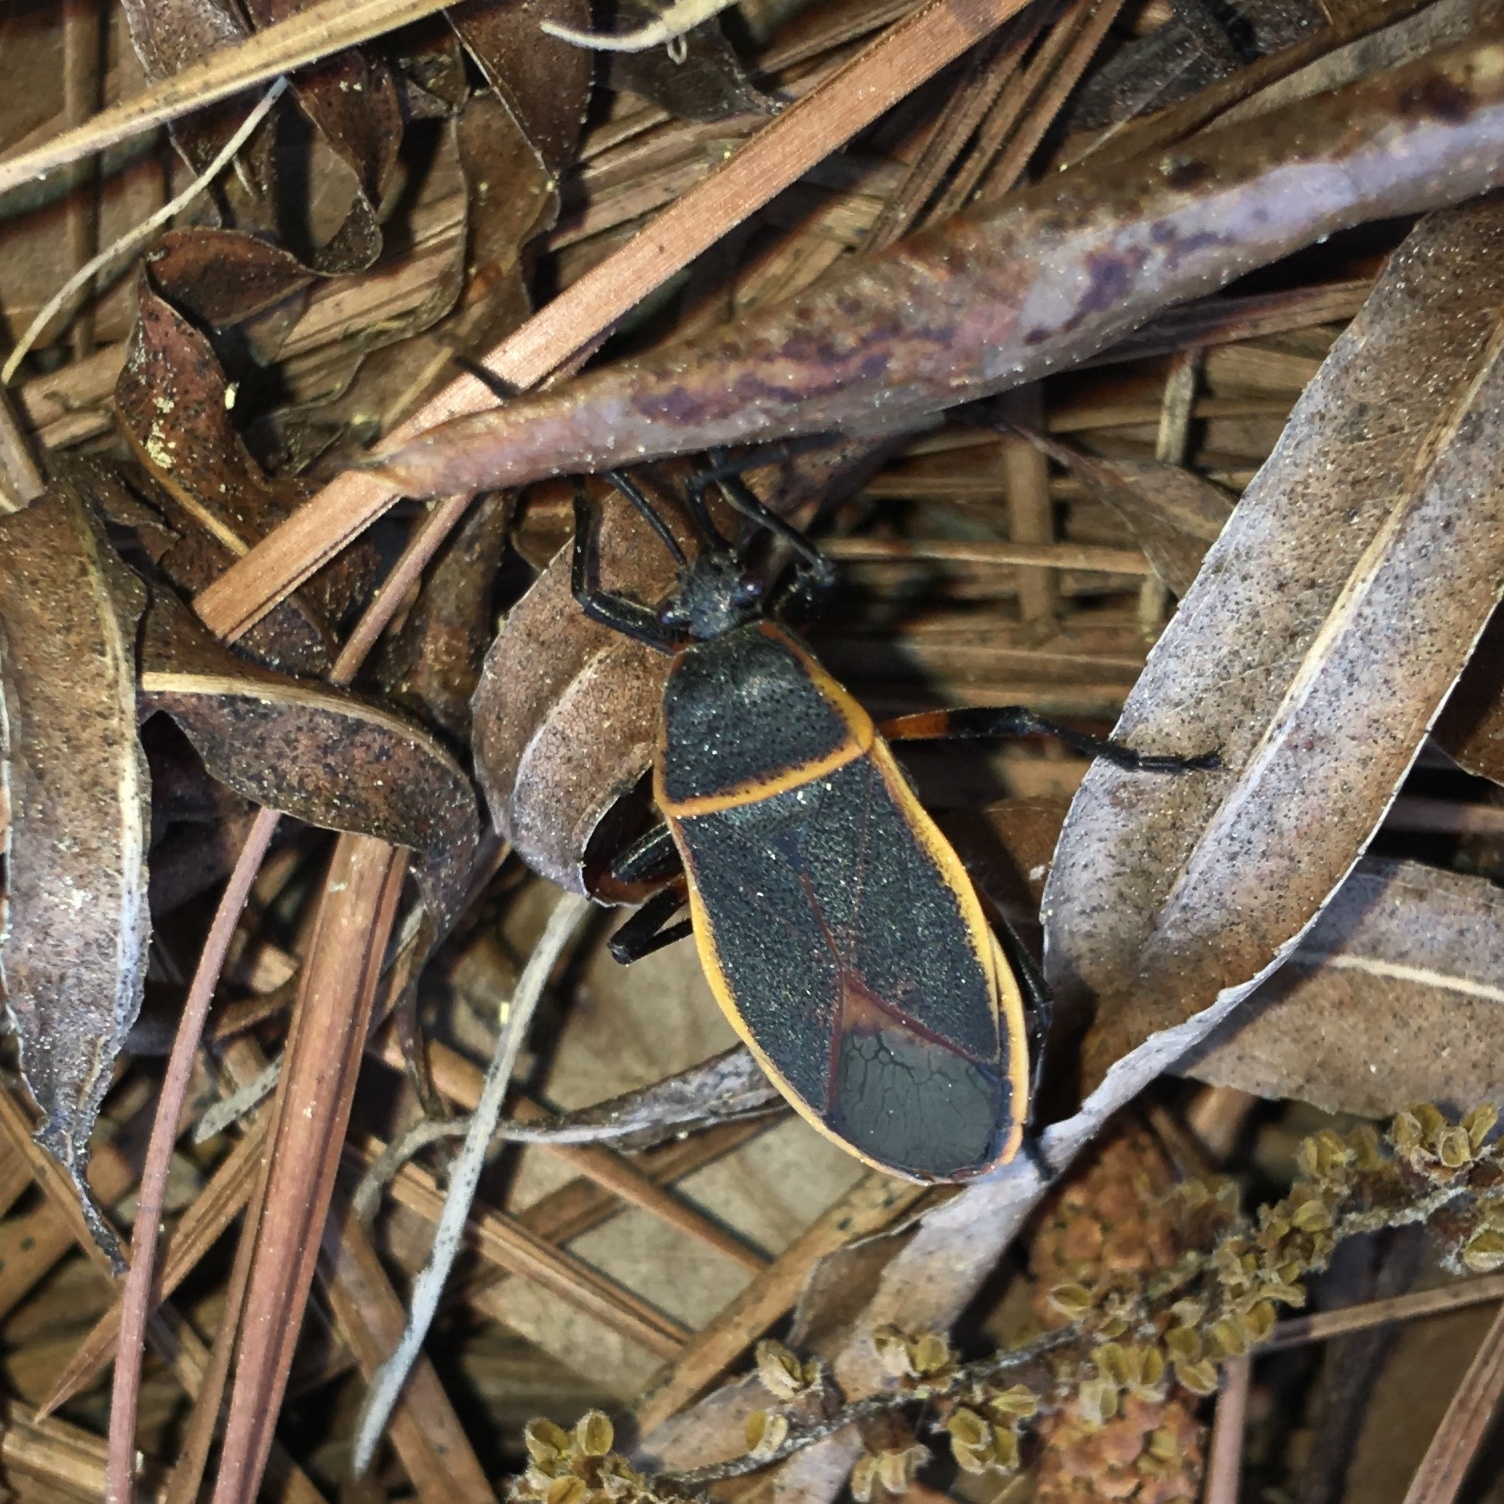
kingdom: Animalia
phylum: Arthropoda
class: Insecta
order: Hemiptera
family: Largidae
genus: Largus
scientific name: Largus succinctus
